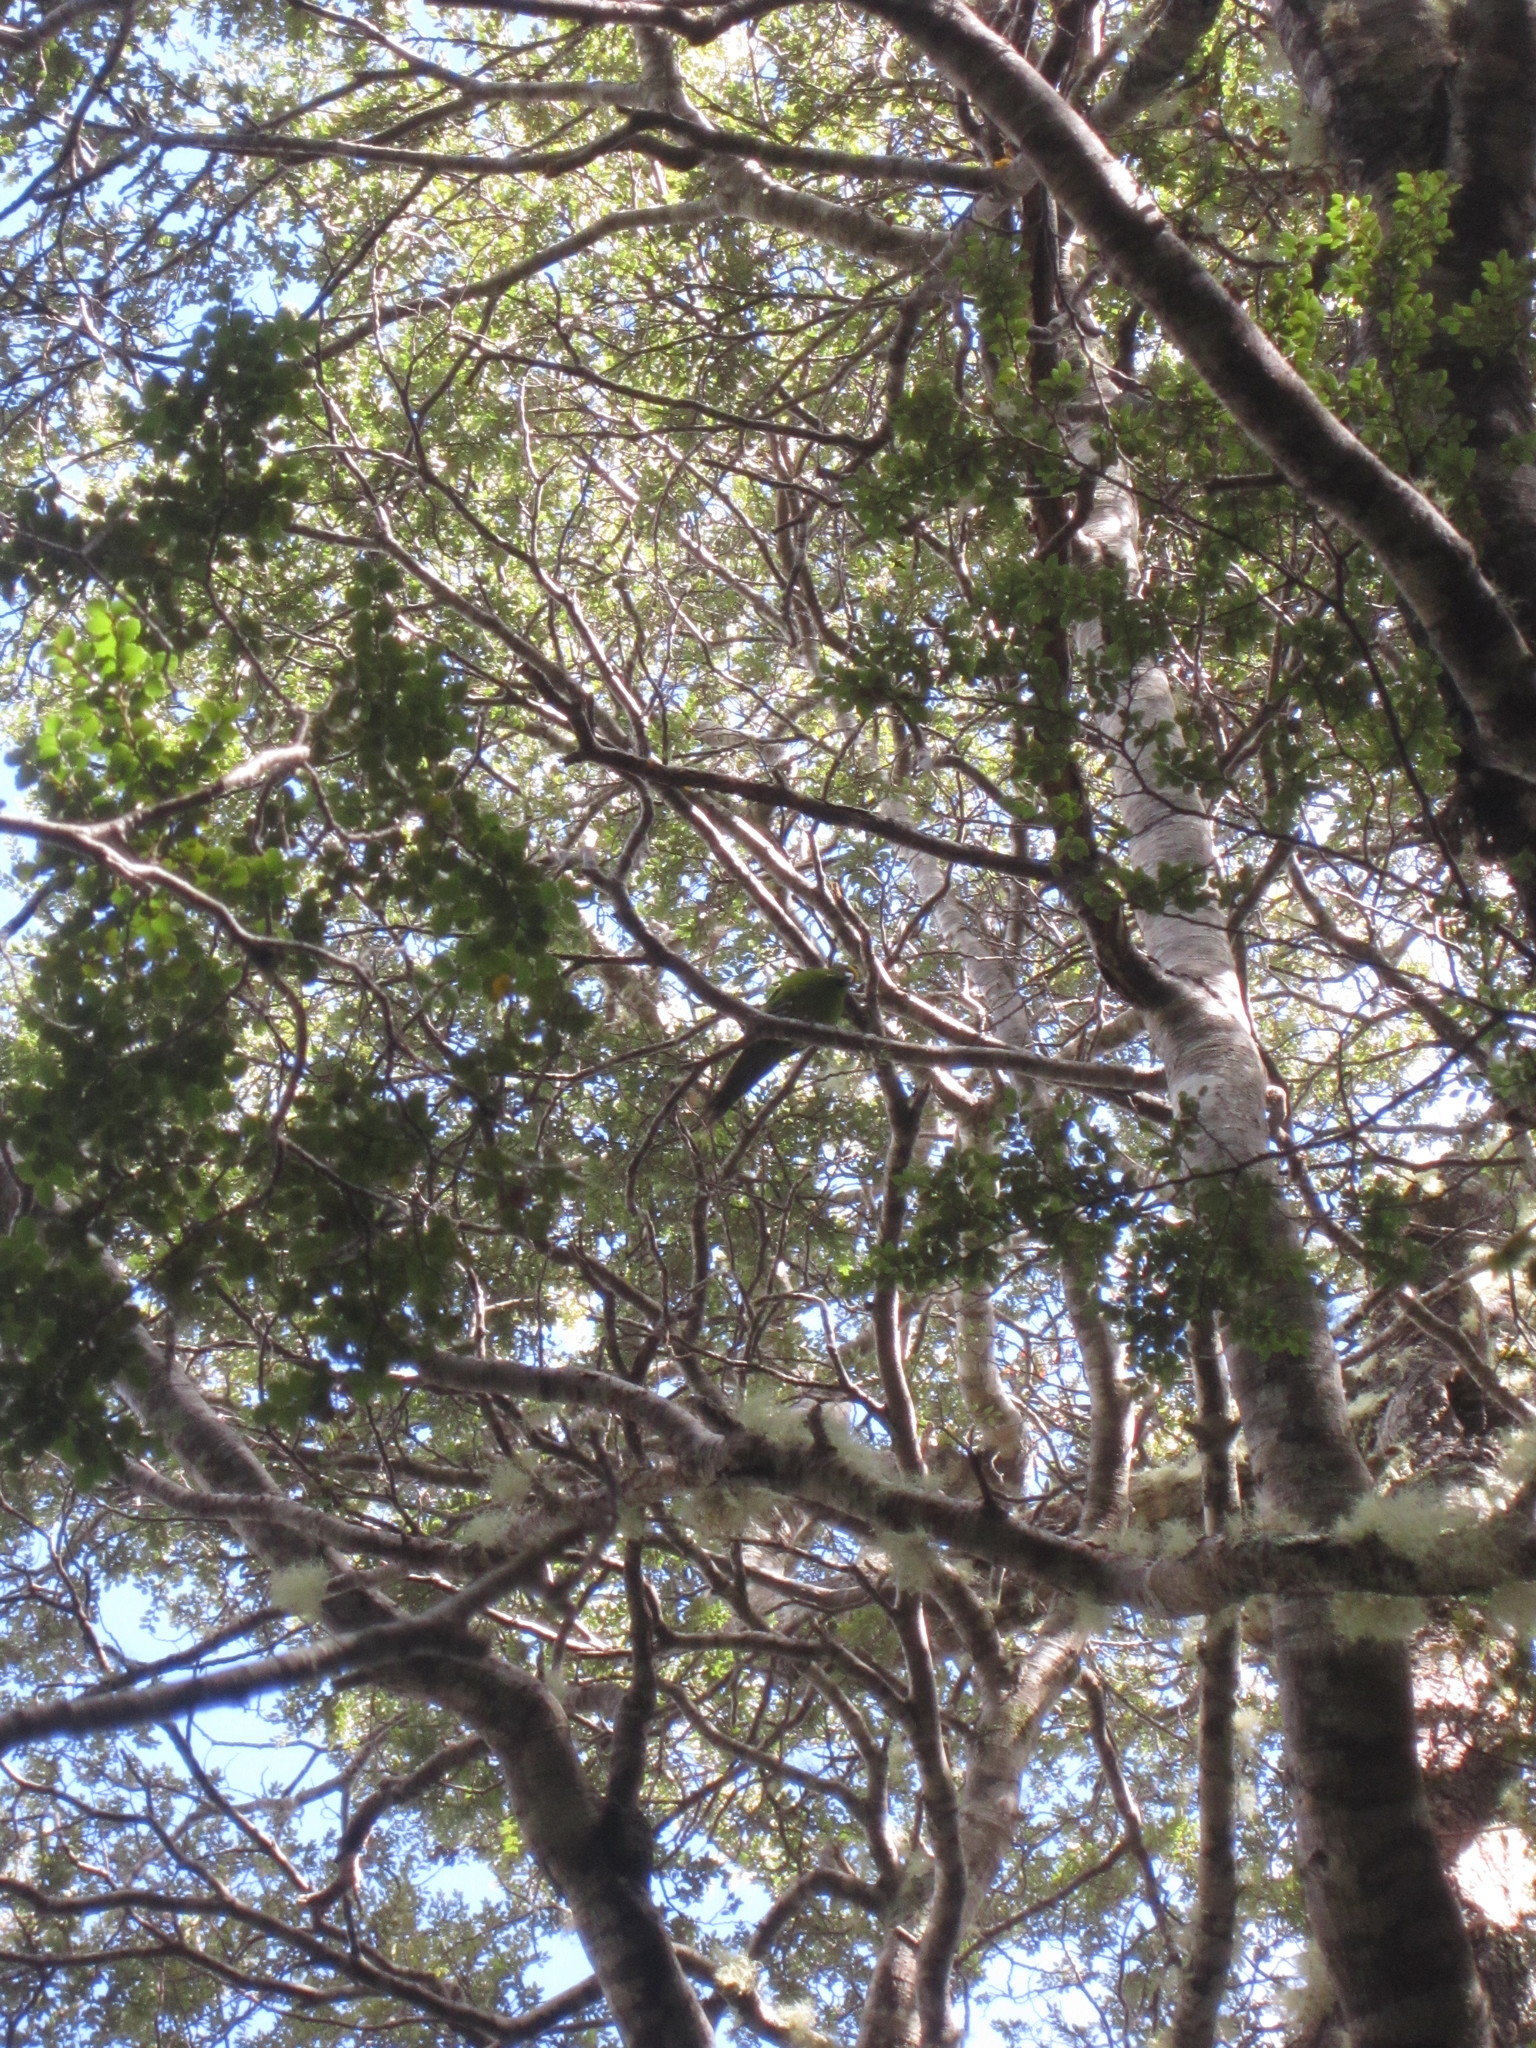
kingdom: Animalia
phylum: Chordata
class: Aves
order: Psittaciformes
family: Psittacidae
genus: Cyanoramphus
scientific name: Cyanoramphus auriceps
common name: Yellow-crowned parakeet
